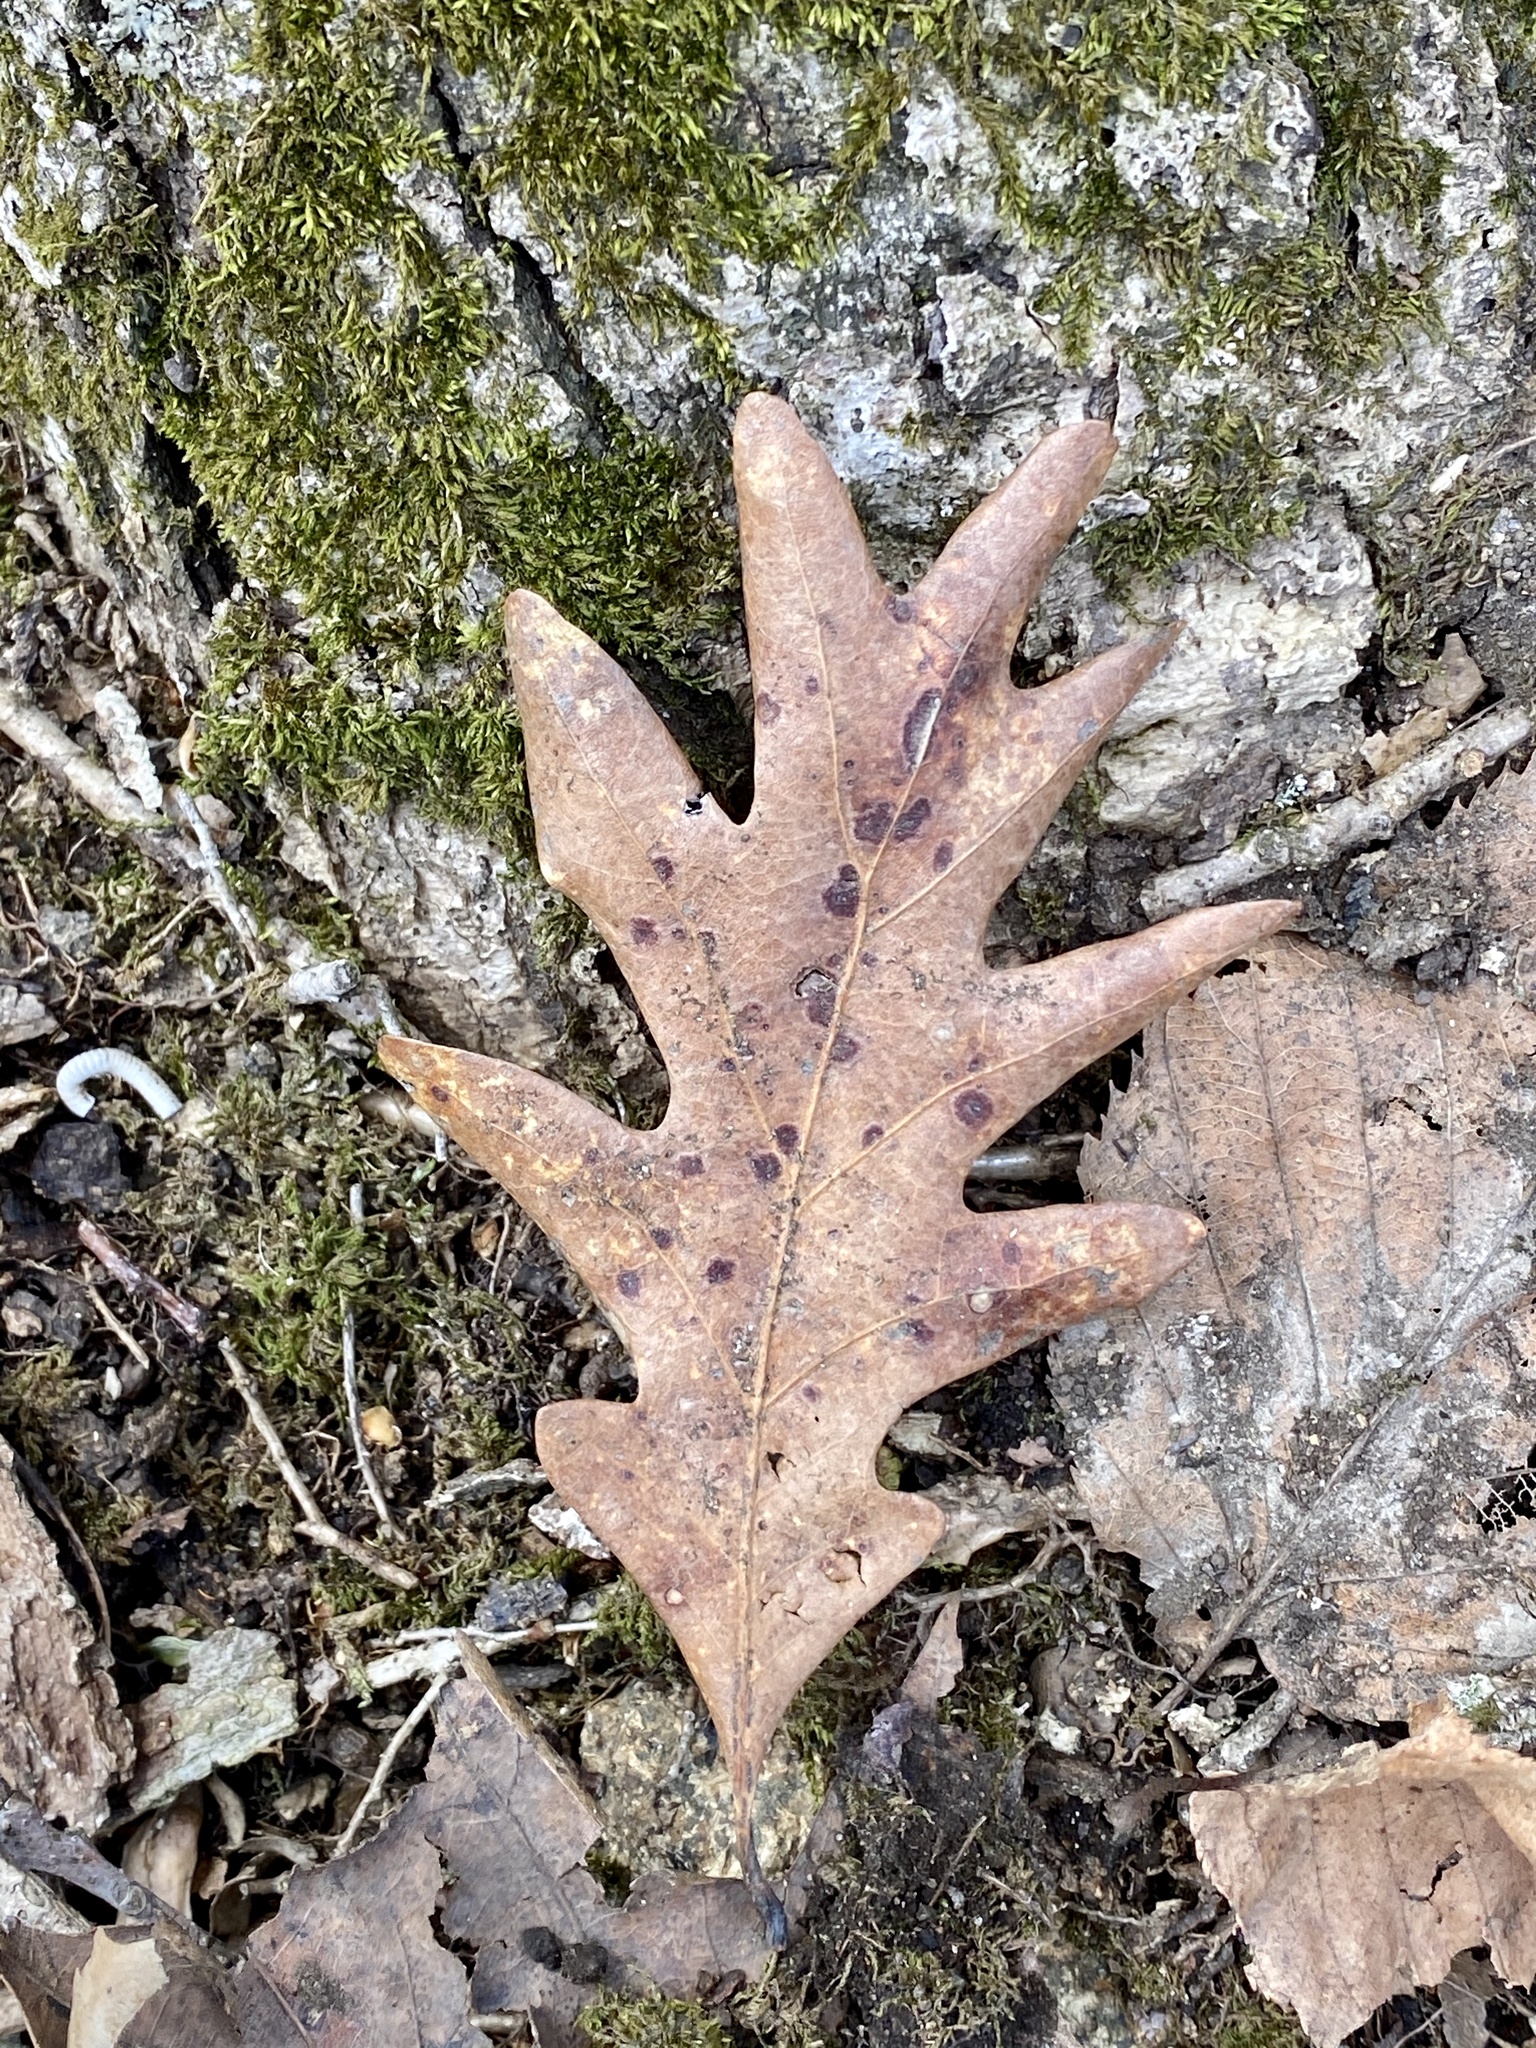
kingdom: Plantae
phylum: Tracheophyta
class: Magnoliopsida
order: Fagales
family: Fagaceae
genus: Quercus
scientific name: Quercus alba
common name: White oak
